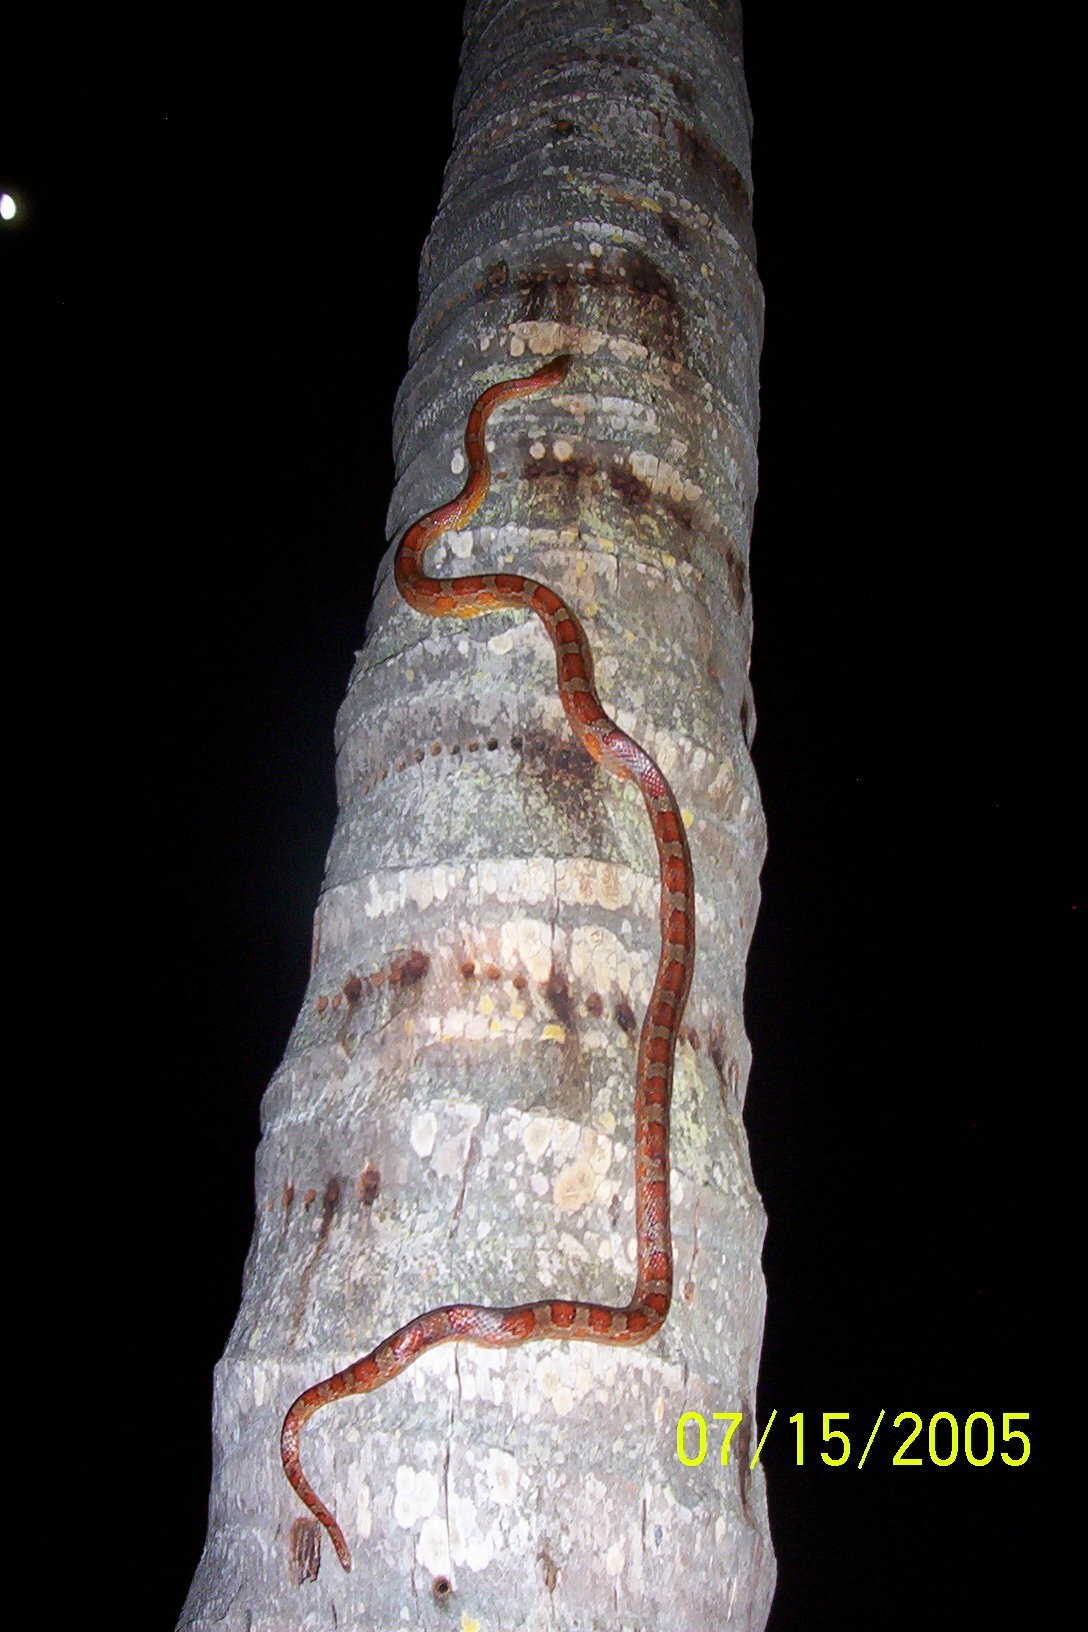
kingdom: Animalia
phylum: Chordata
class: Squamata
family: Colubridae
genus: Pantherophis
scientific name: Pantherophis guttatus
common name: Red cornsnake
